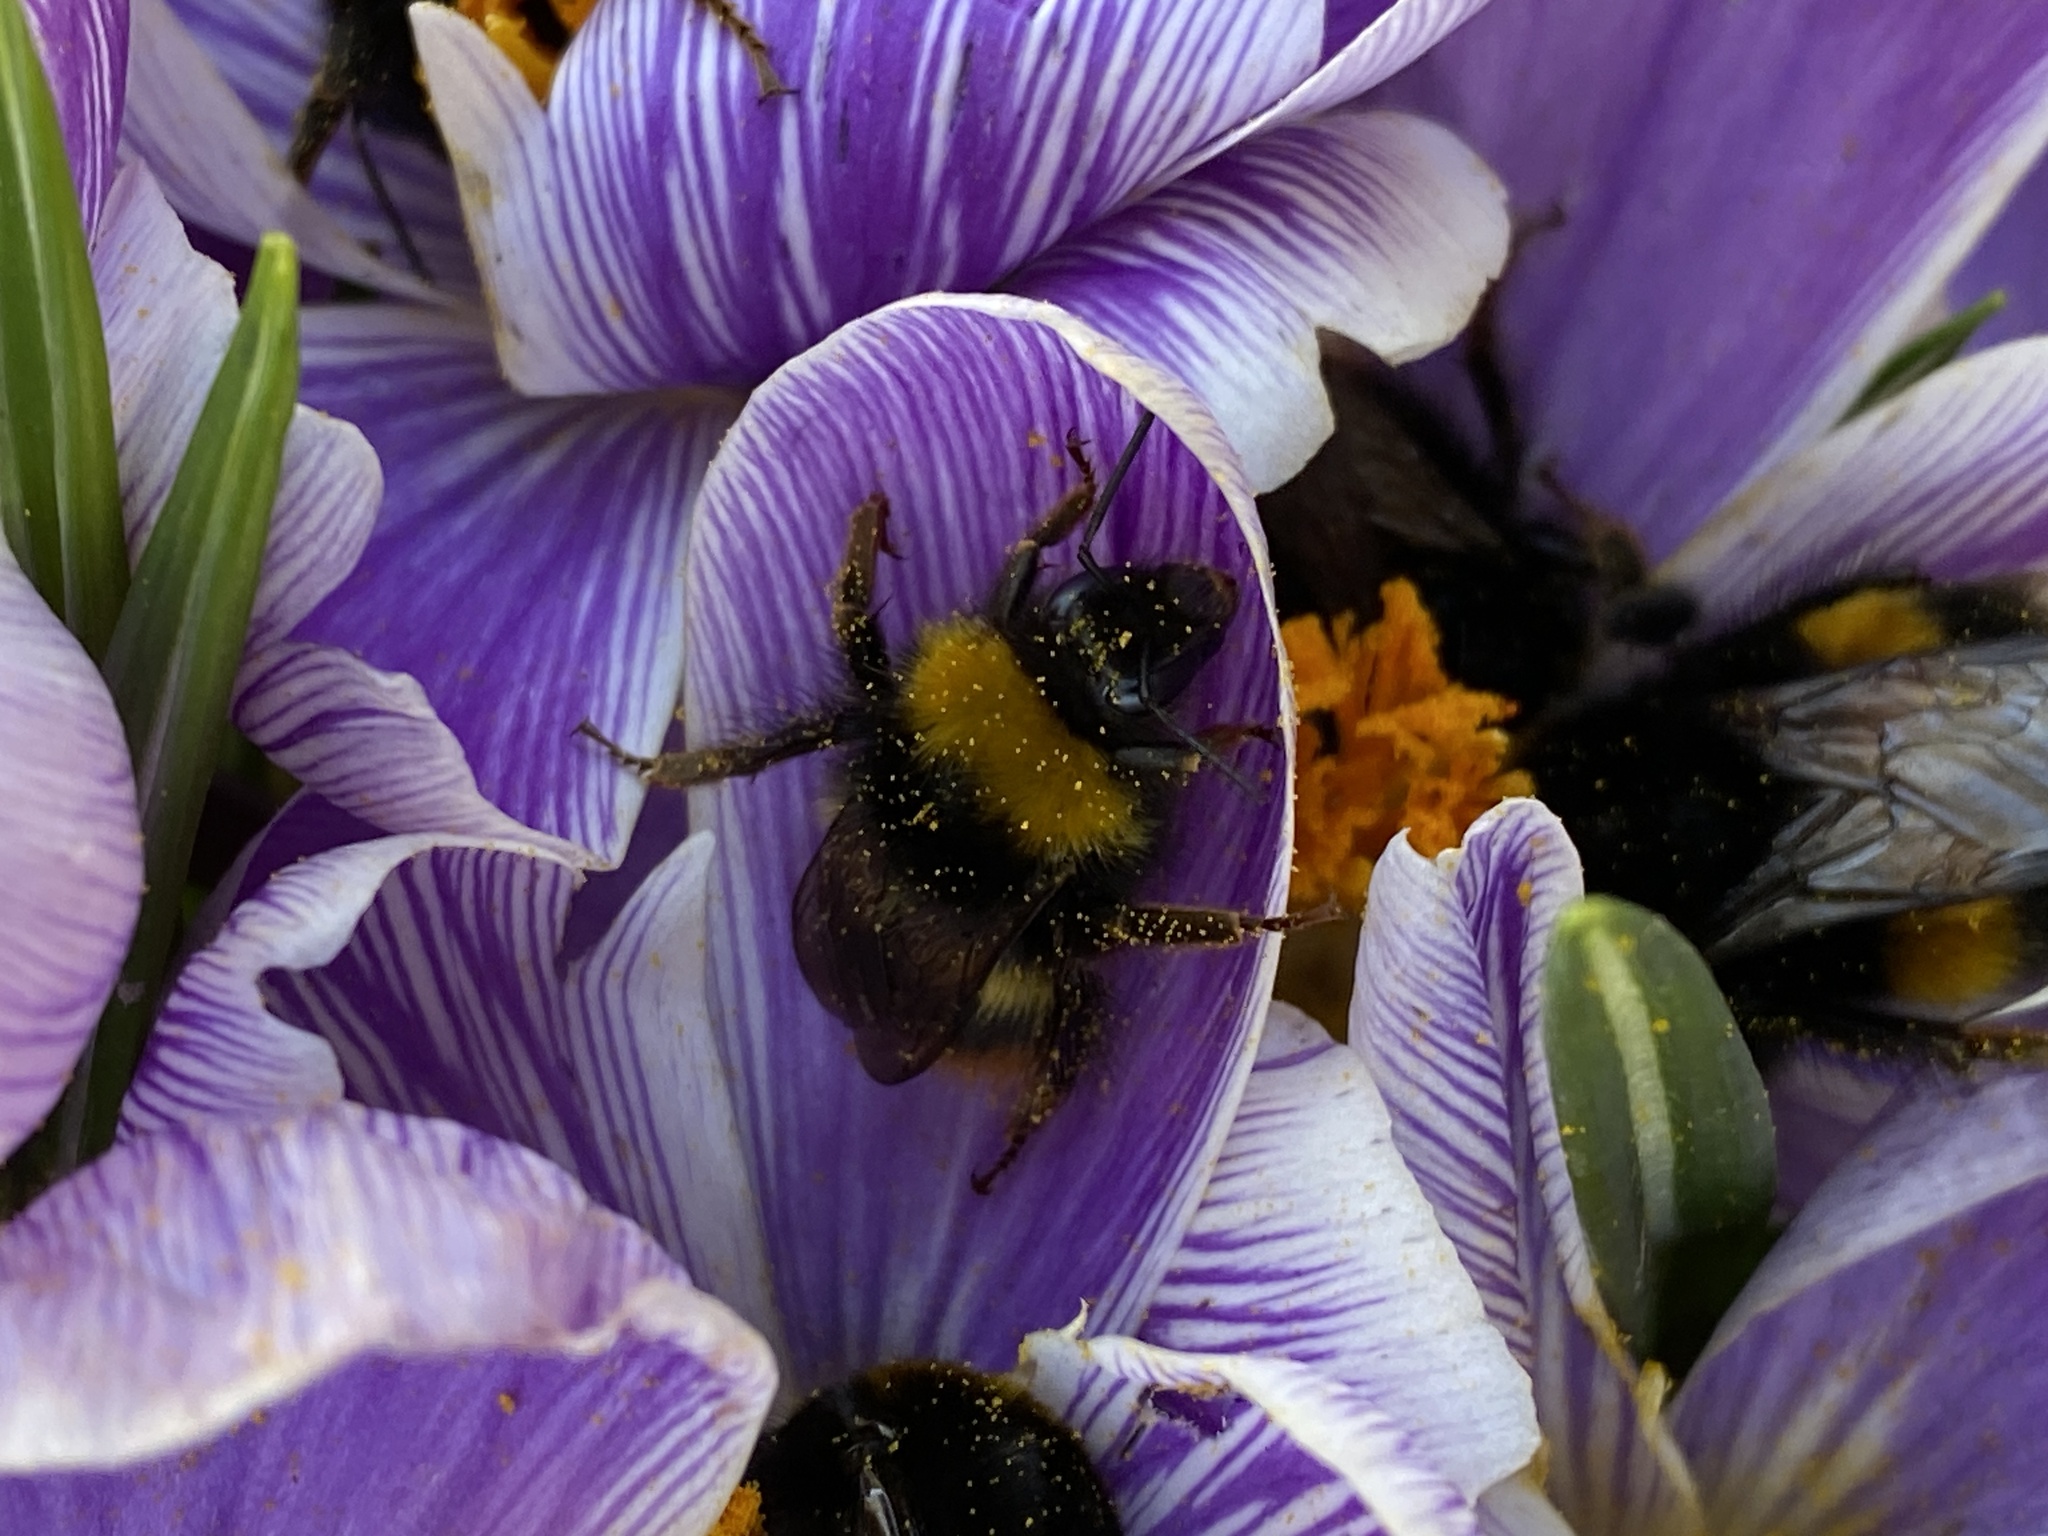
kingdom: Animalia
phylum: Arthropoda
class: Insecta
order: Hymenoptera
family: Apidae
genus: Bombus
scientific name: Bombus terrestris
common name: Buff-tailed bumblebee
